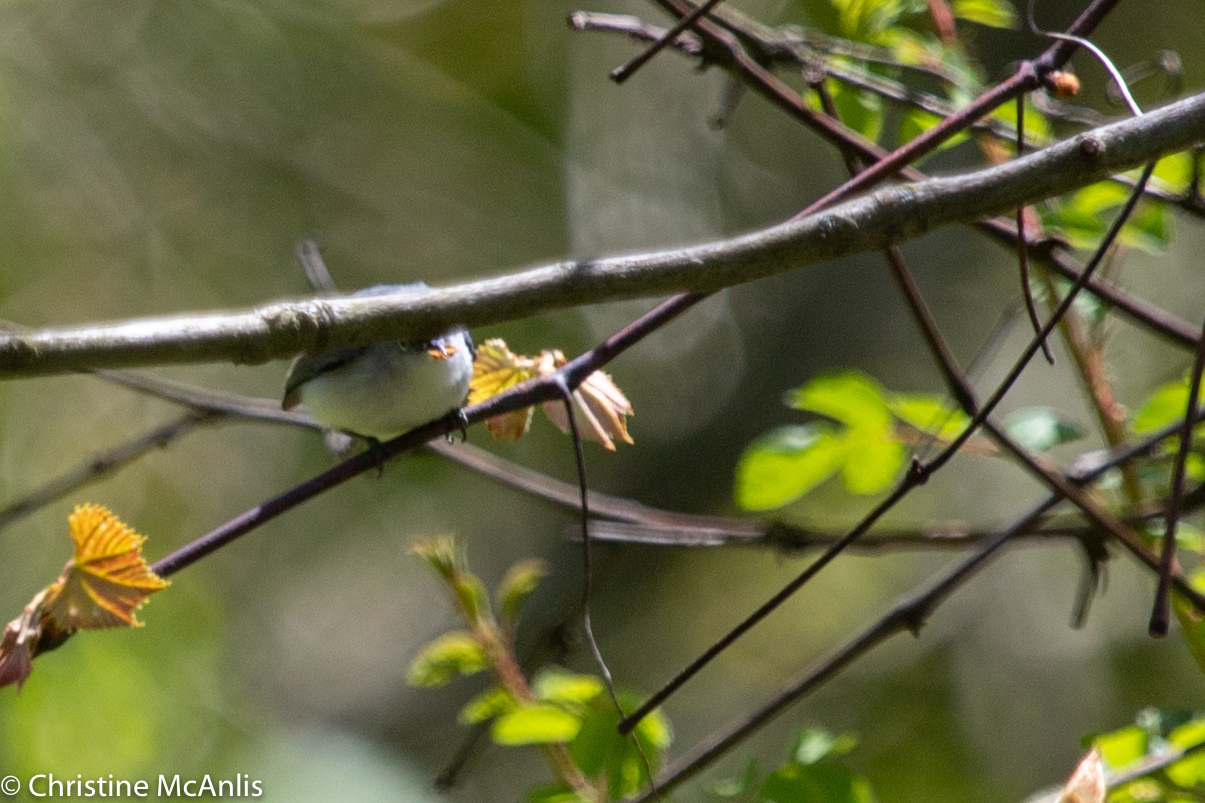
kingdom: Animalia
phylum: Chordata
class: Aves
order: Passeriformes
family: Polioptilidae
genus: Polioptila
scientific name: Polioptila caerulea
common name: Blue-gray gnatcatcher
